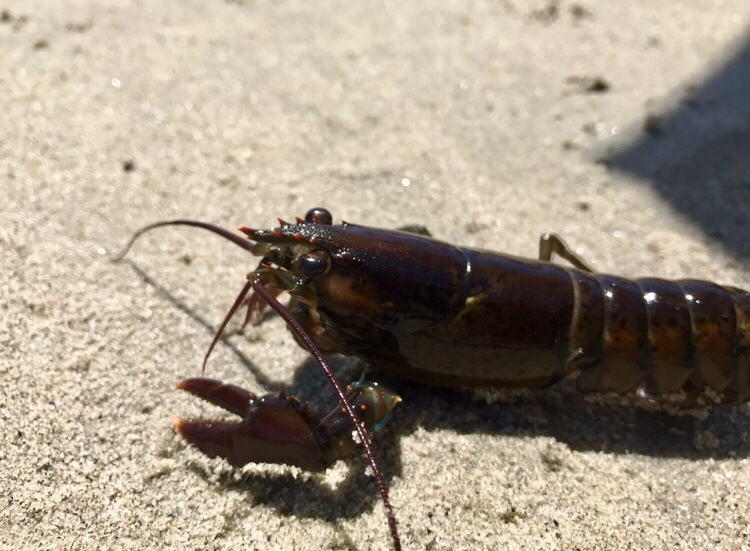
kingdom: Animalia
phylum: Arthropoda
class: Malacostraca
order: Decapoda
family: Nephropidae
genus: Homarus
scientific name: Homarus americanus
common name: American lobster
